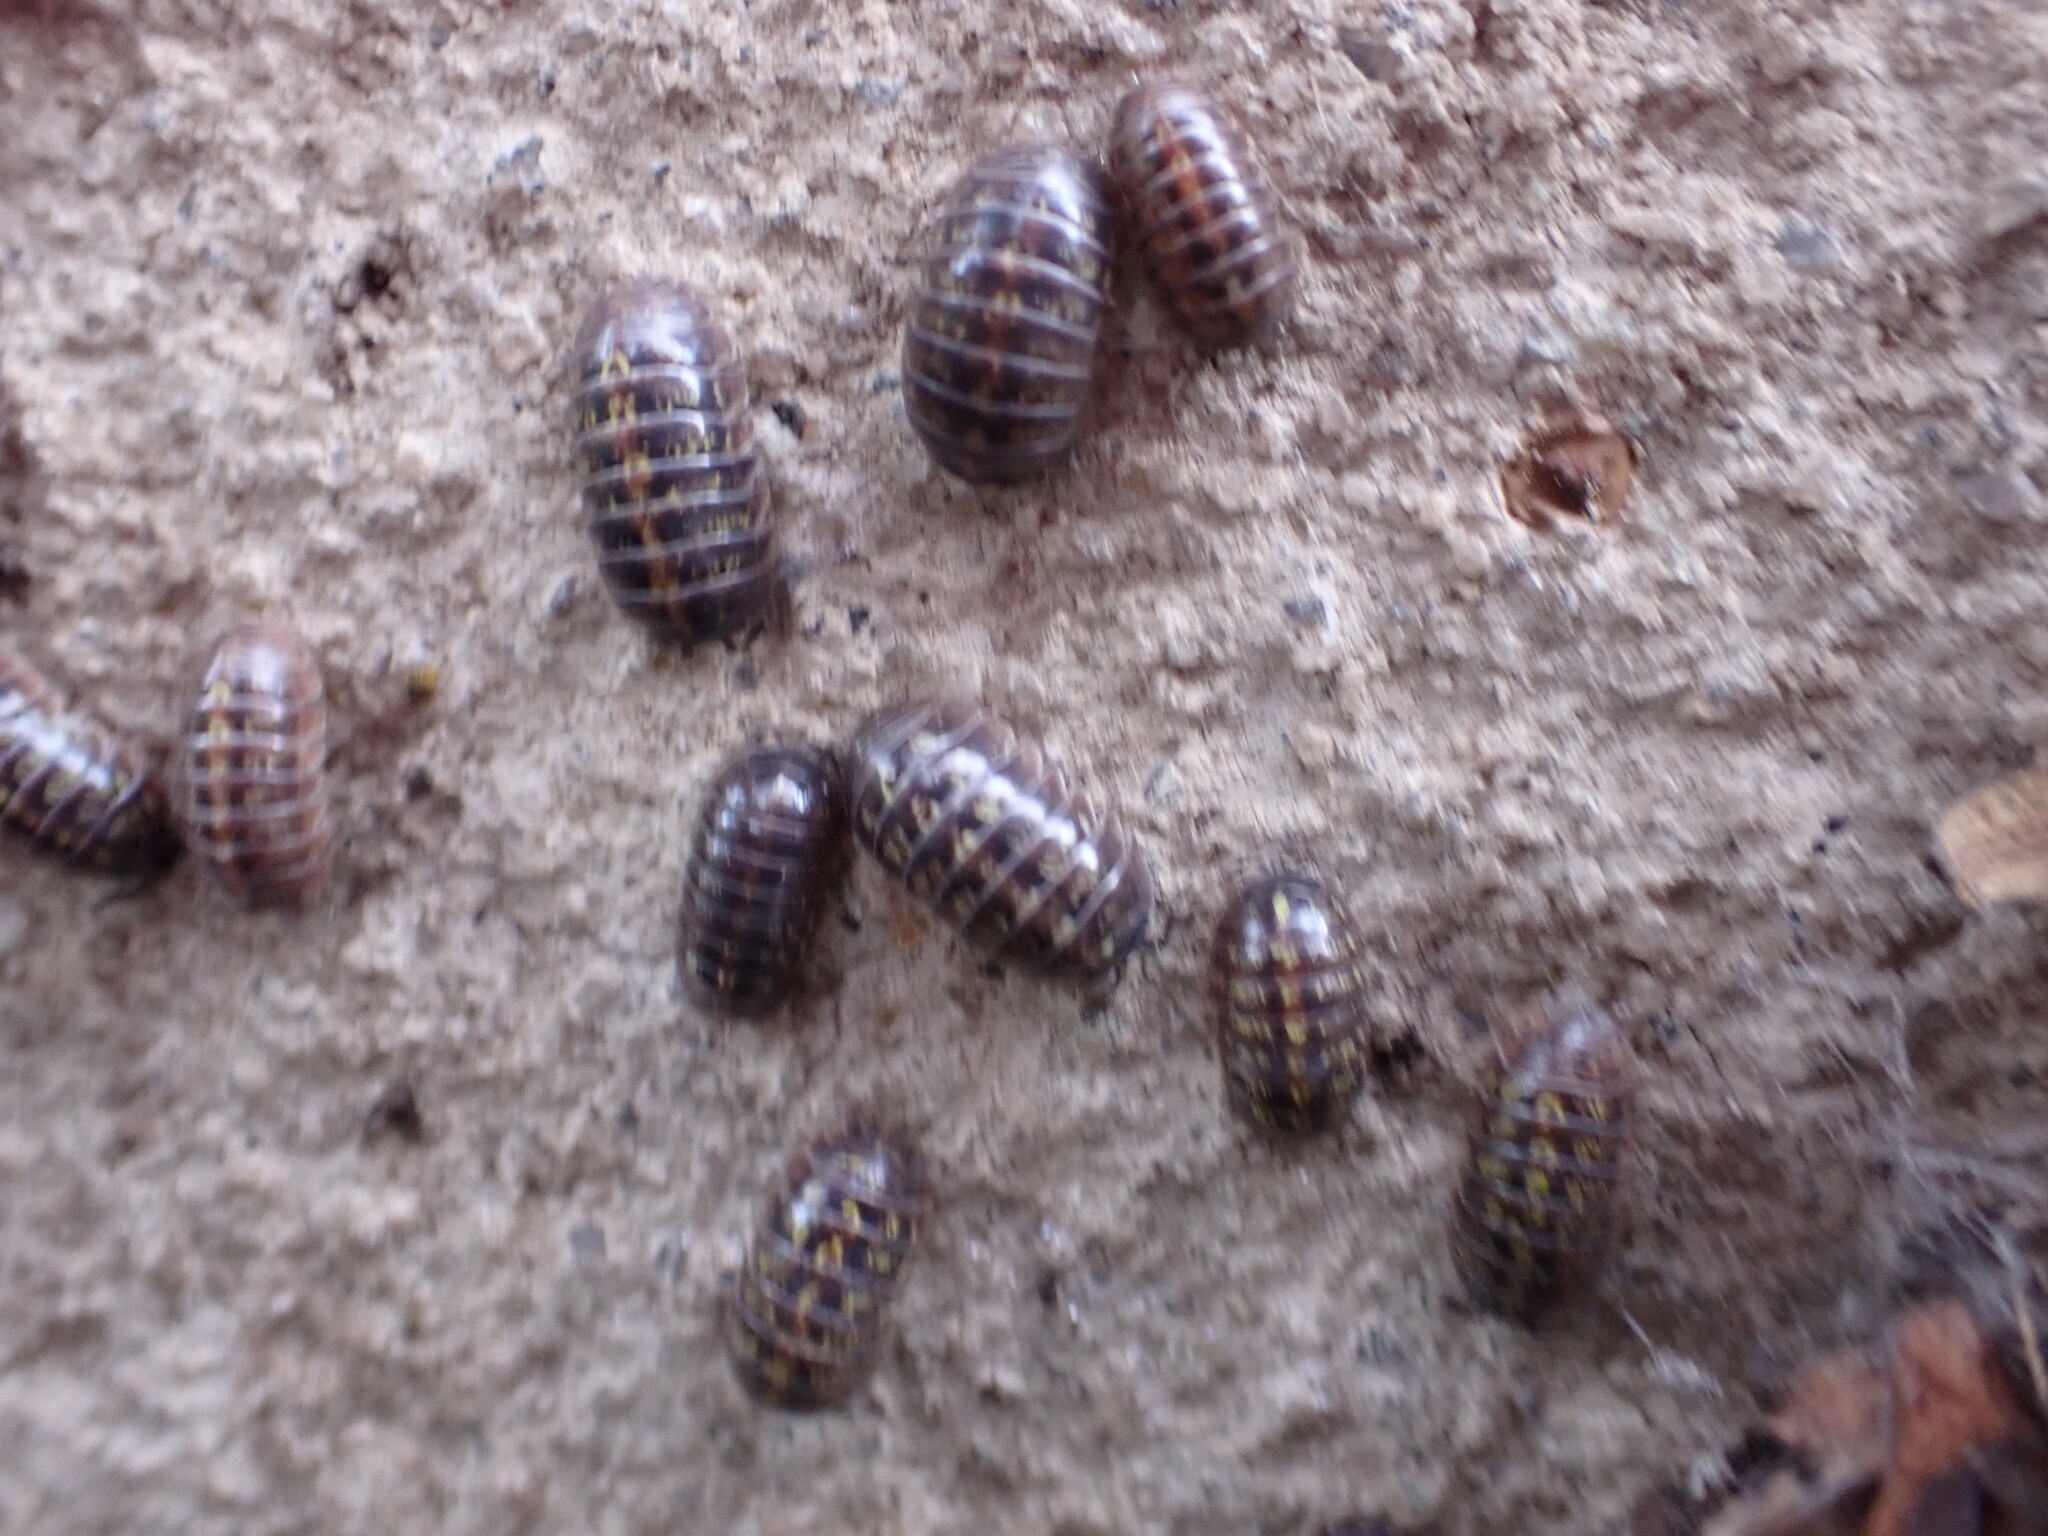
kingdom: Animalia
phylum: Arthropoda
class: Malacostraca
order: Isopoda
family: Armadillidiidae
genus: Armadillidium
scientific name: Armadillidium vulgare
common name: Common pill woodlouse
